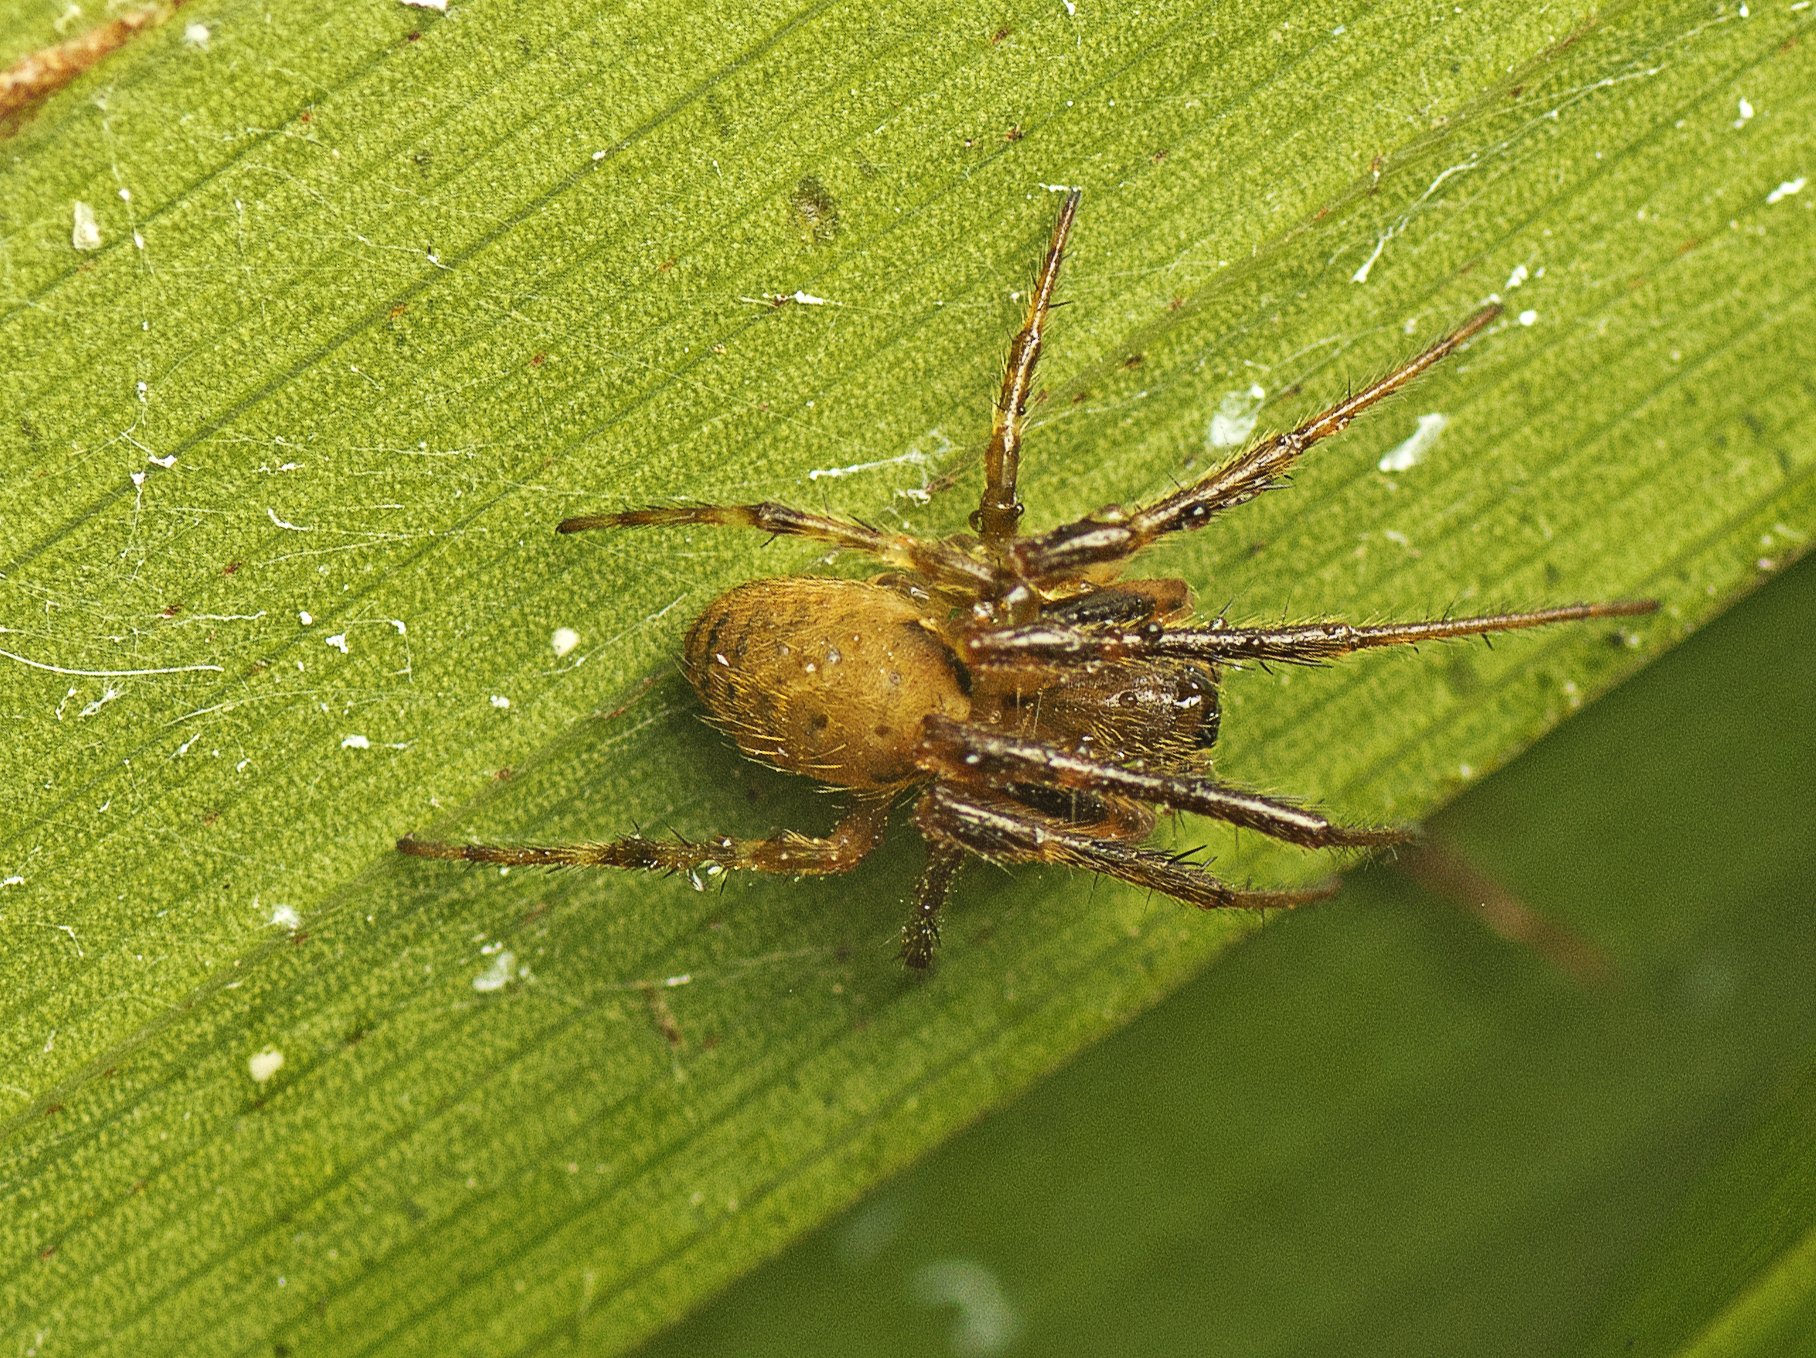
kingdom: Animalia
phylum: Arthropoda
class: Arachnida
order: Araneae
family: Araneidae
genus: Araneus
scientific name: Araneus dimidiatus
